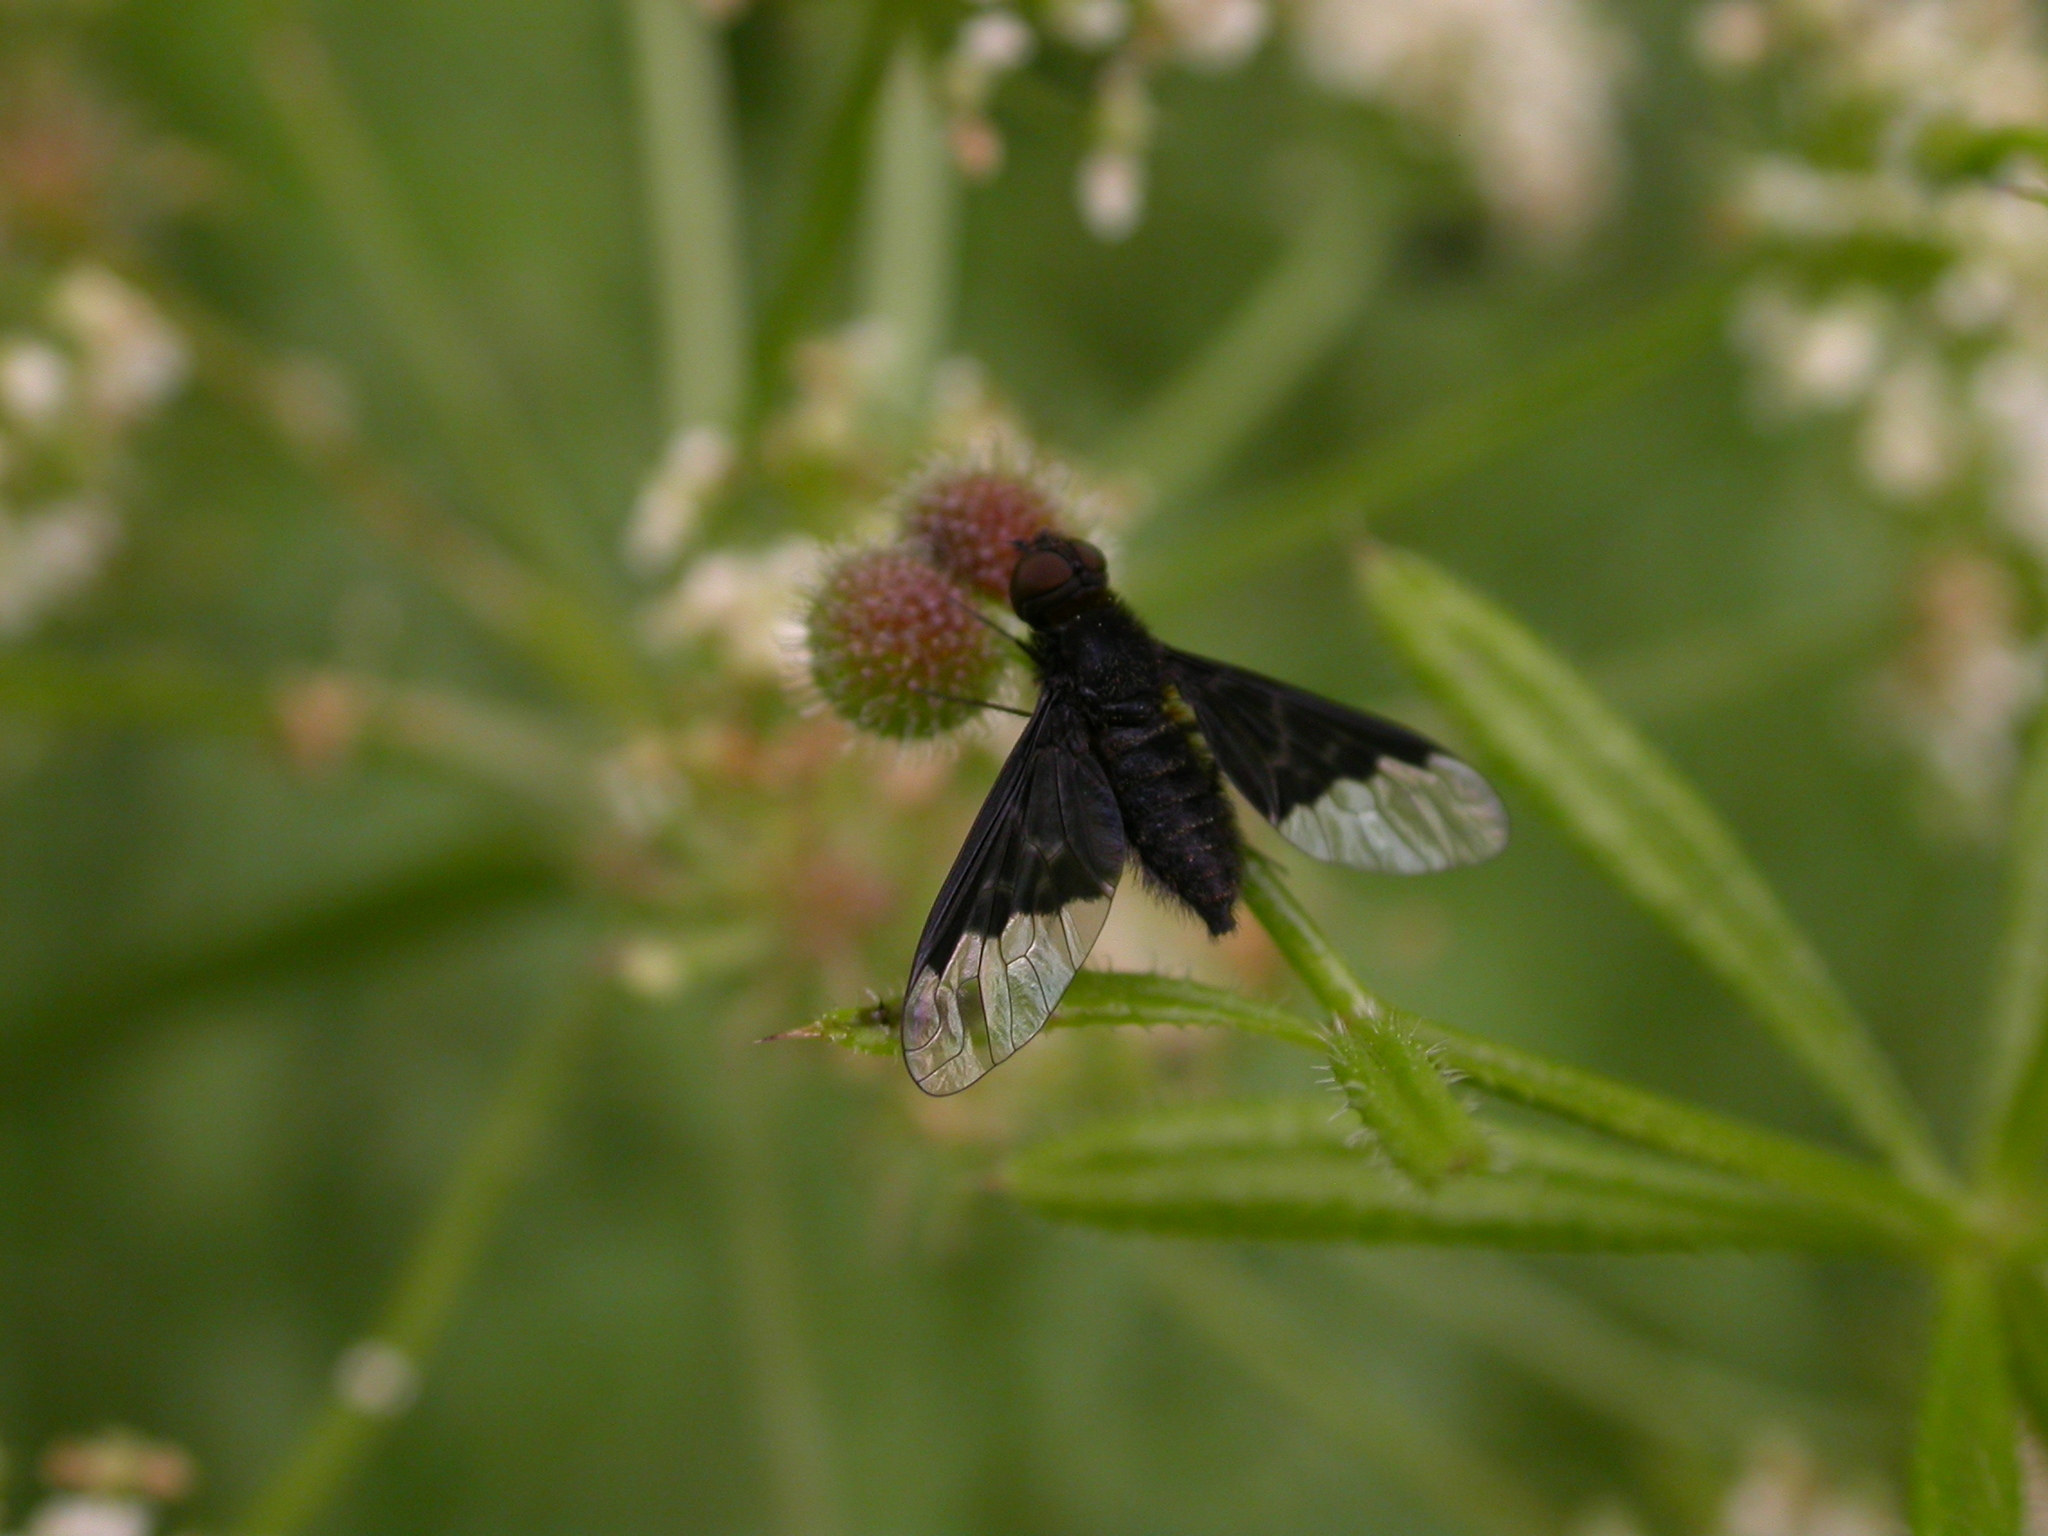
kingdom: Animalia
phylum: Arthropoda
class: Insecta
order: Diptera
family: Bombyliidae
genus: Hemipenthes
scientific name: Hemipenthes morio
